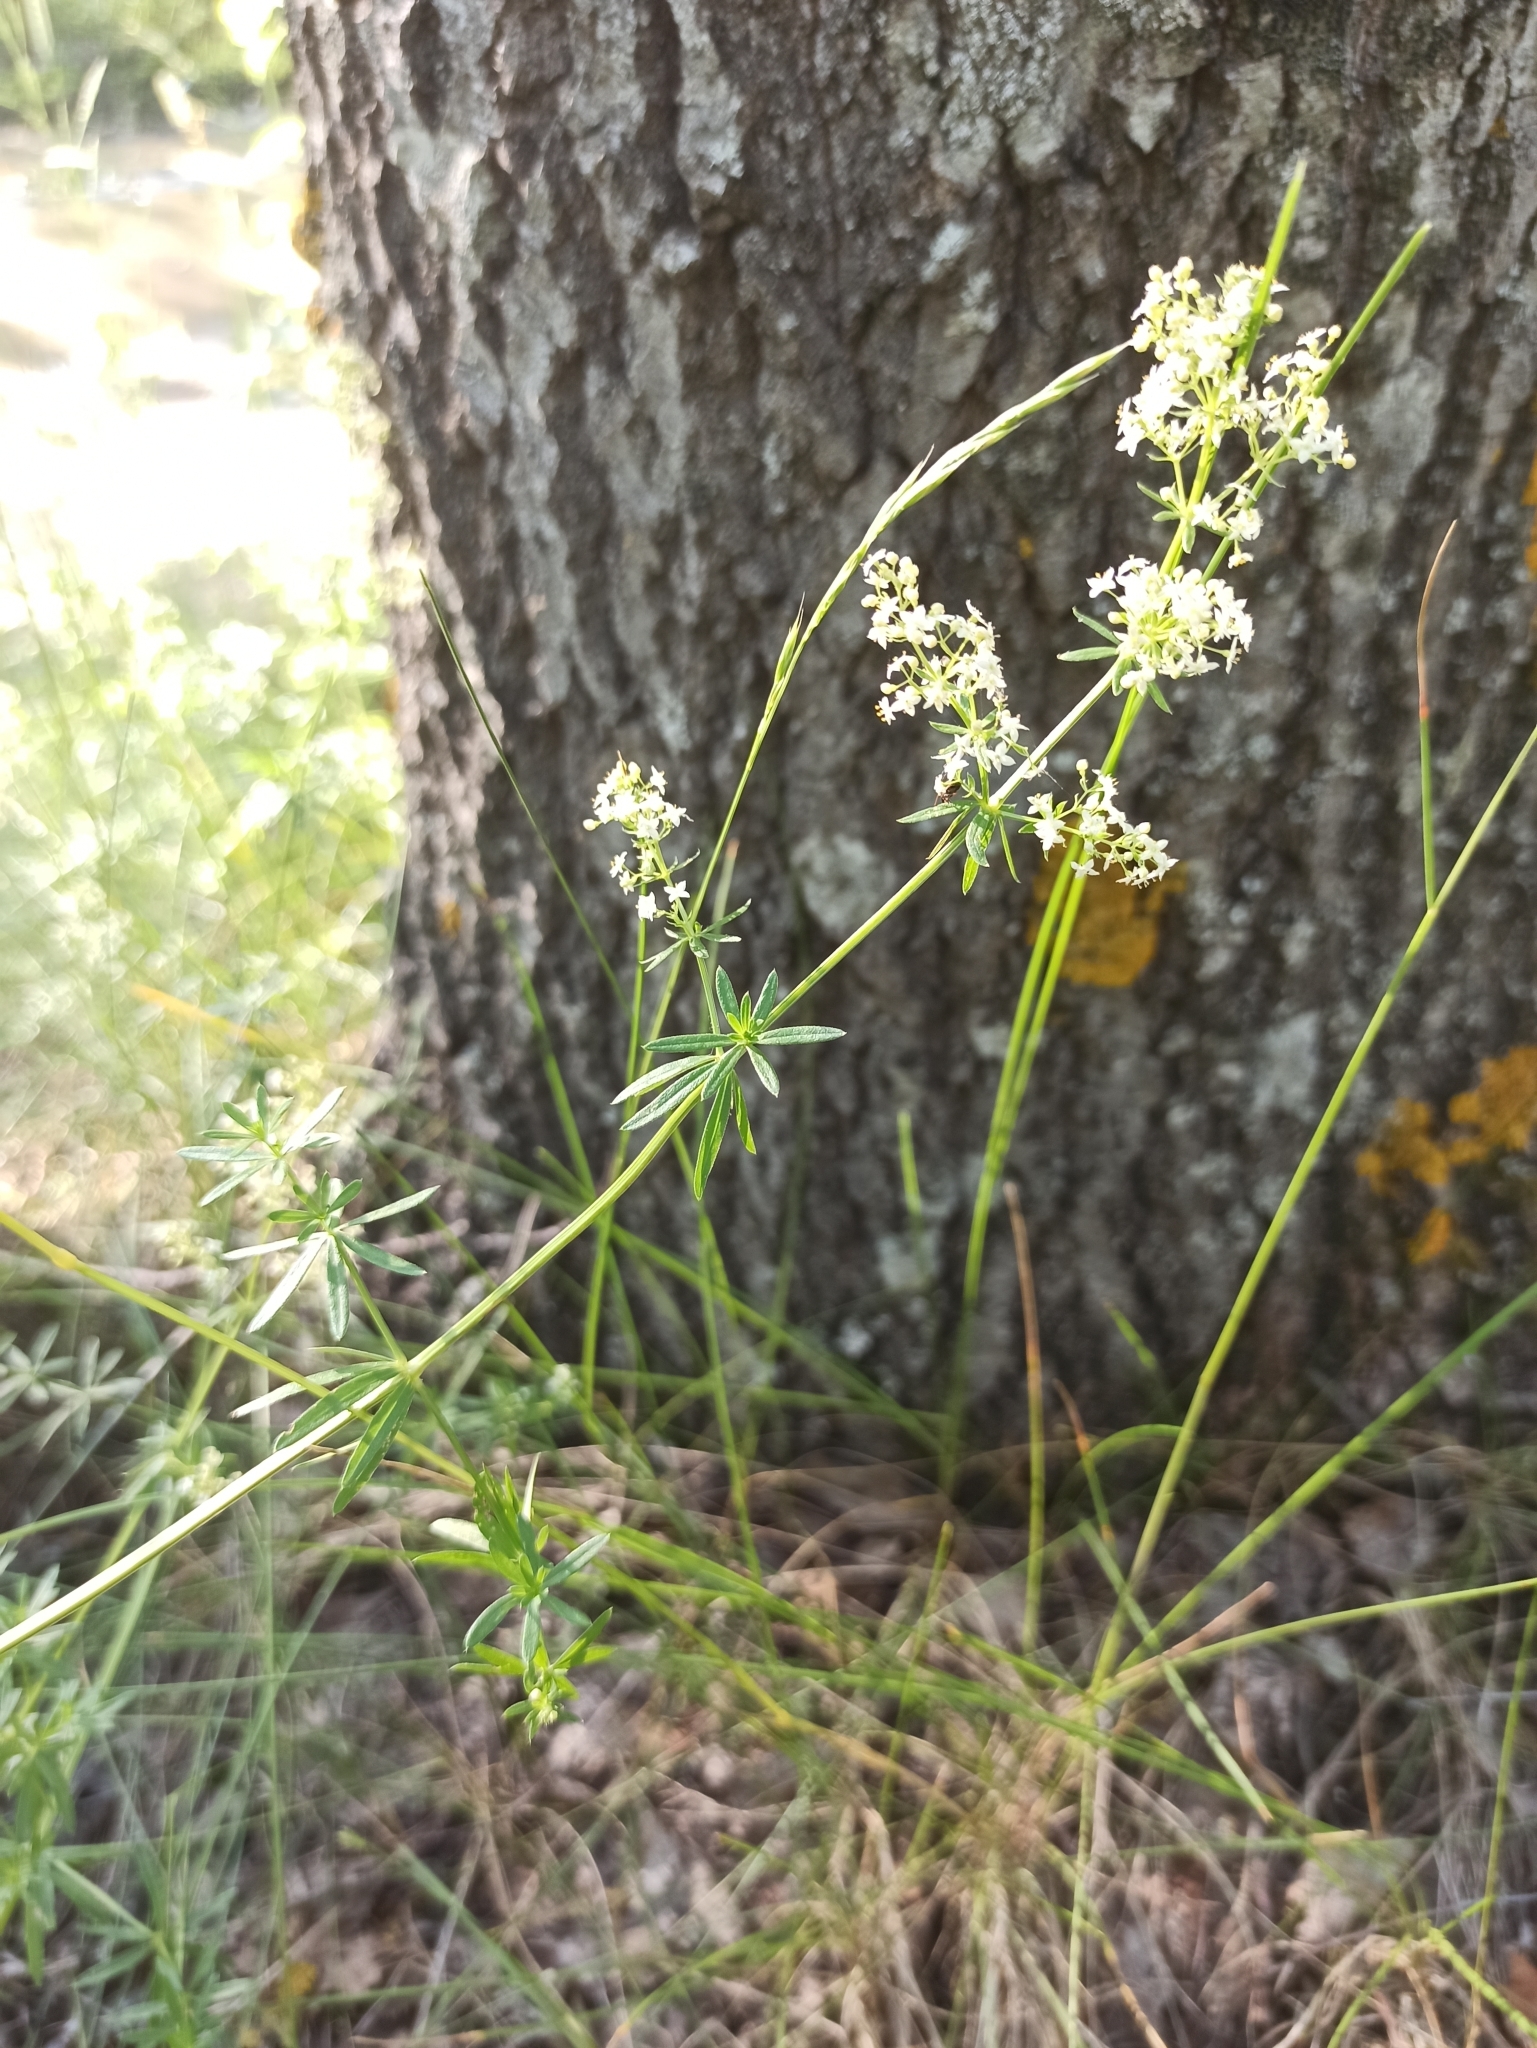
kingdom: Plantae
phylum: Tracheophyta
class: Magnoliopsida
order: Gentianales
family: Rubiaceae
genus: Galium
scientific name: Galium mollugo
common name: Hedge bedstraw
